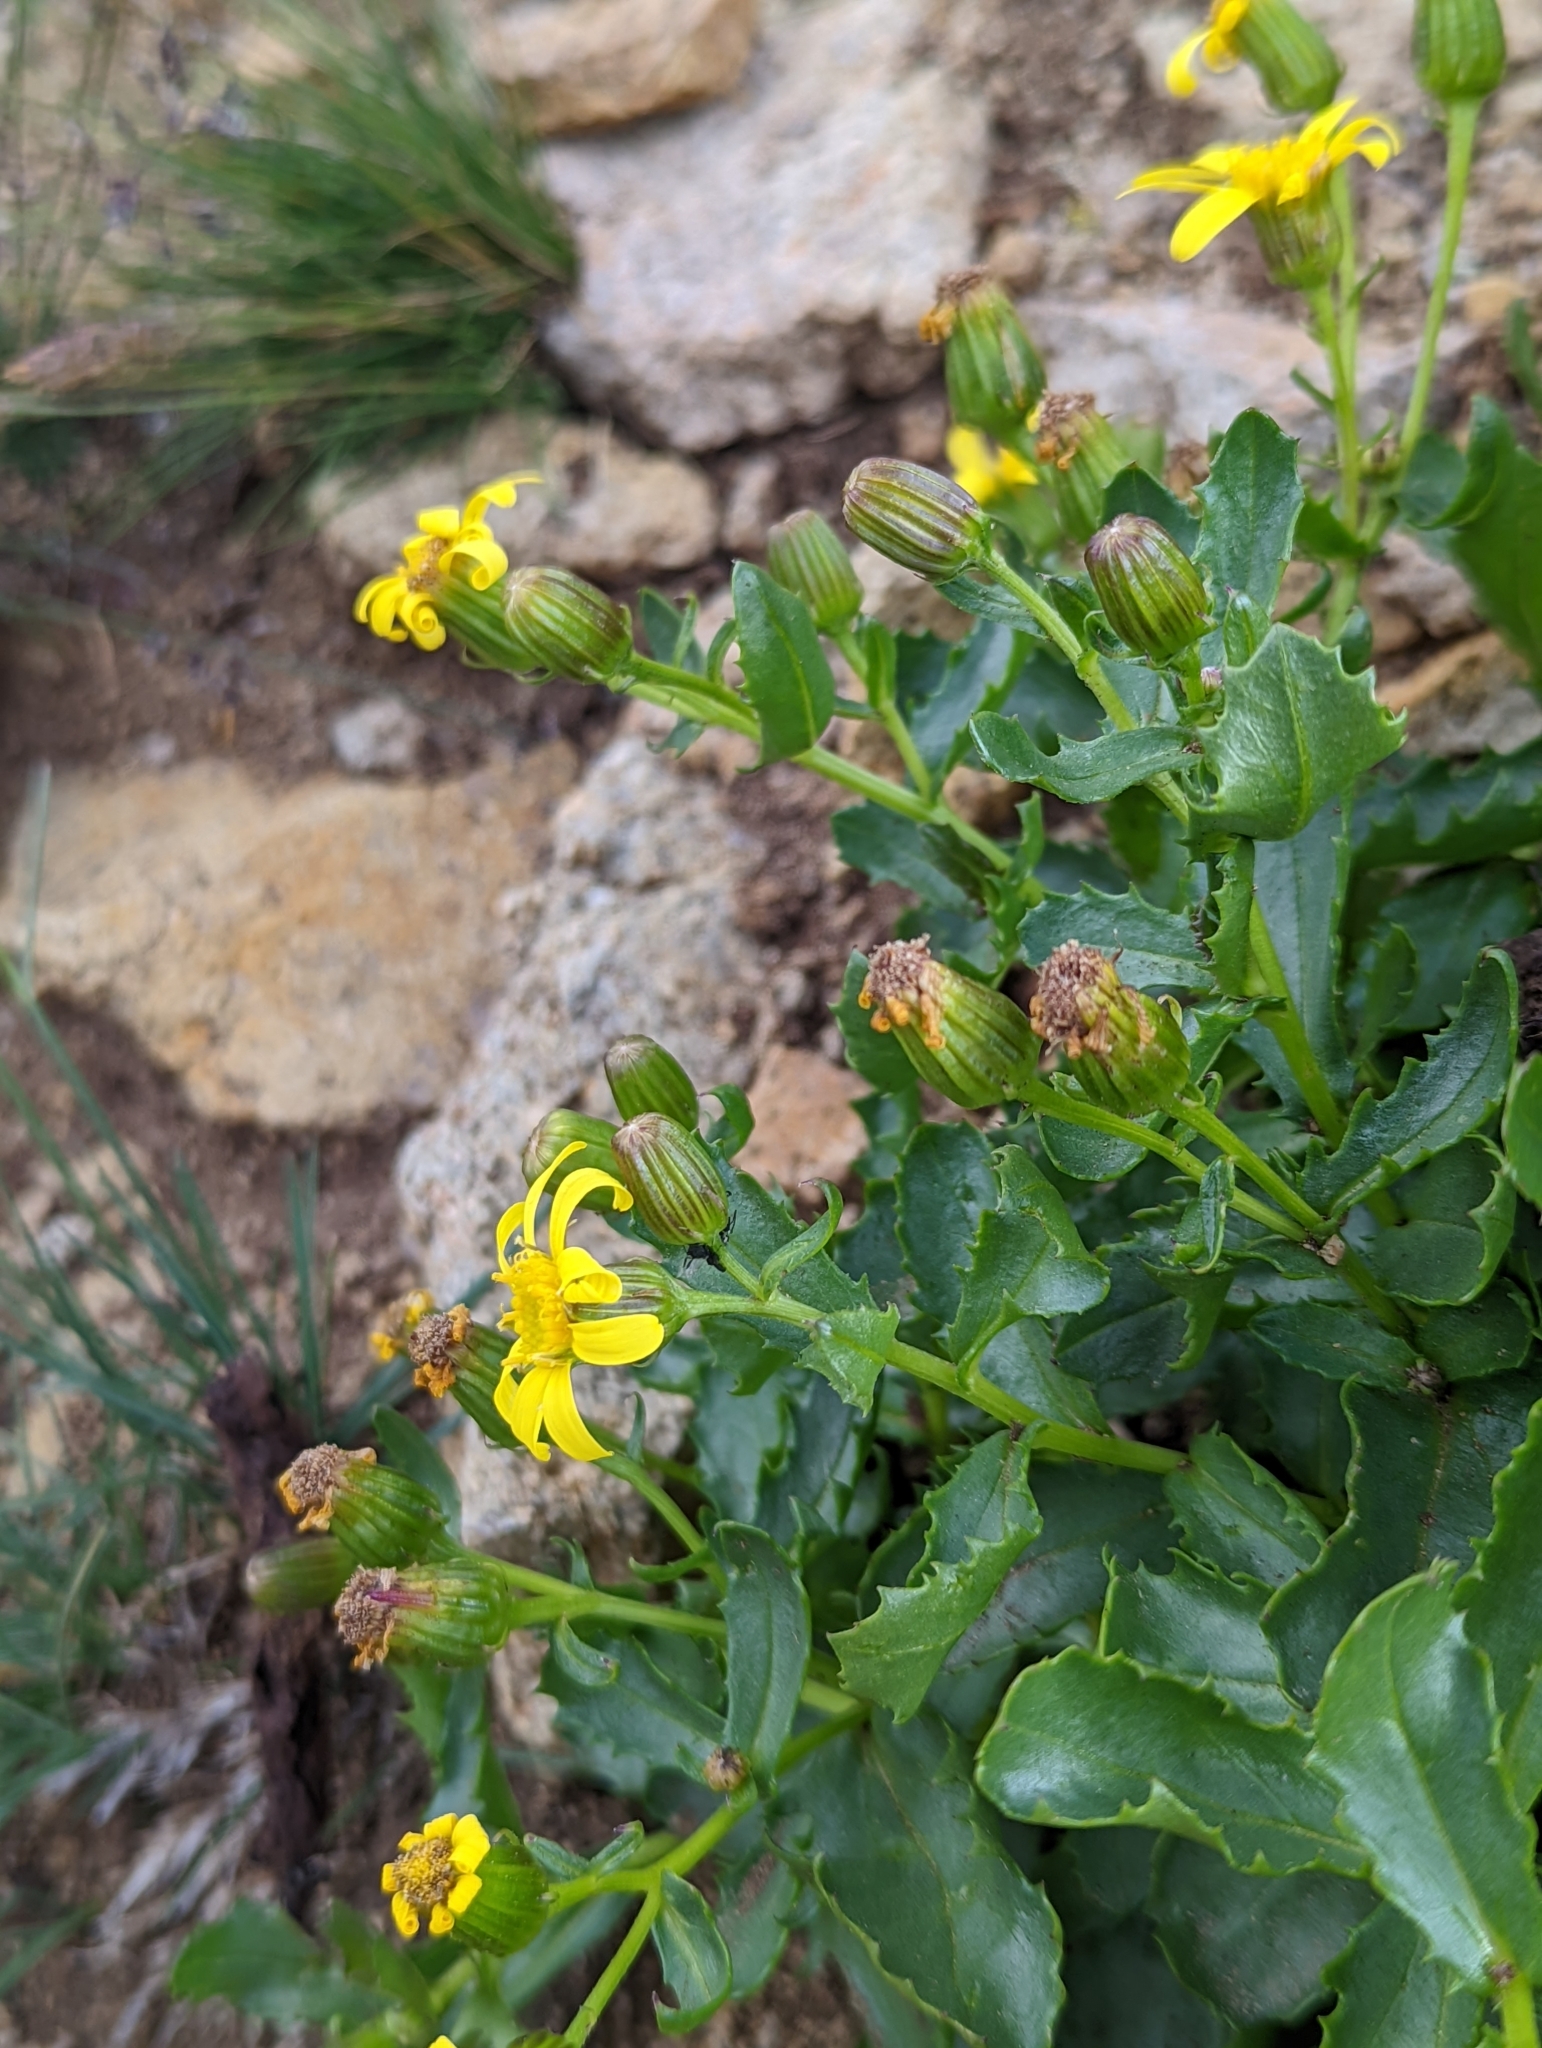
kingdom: Plantae
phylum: Tracheophyta
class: Magnoliopsida
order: Asterales
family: Asteraceae
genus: Senecio
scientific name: Senecio fremontii
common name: Fremont's groundsel
